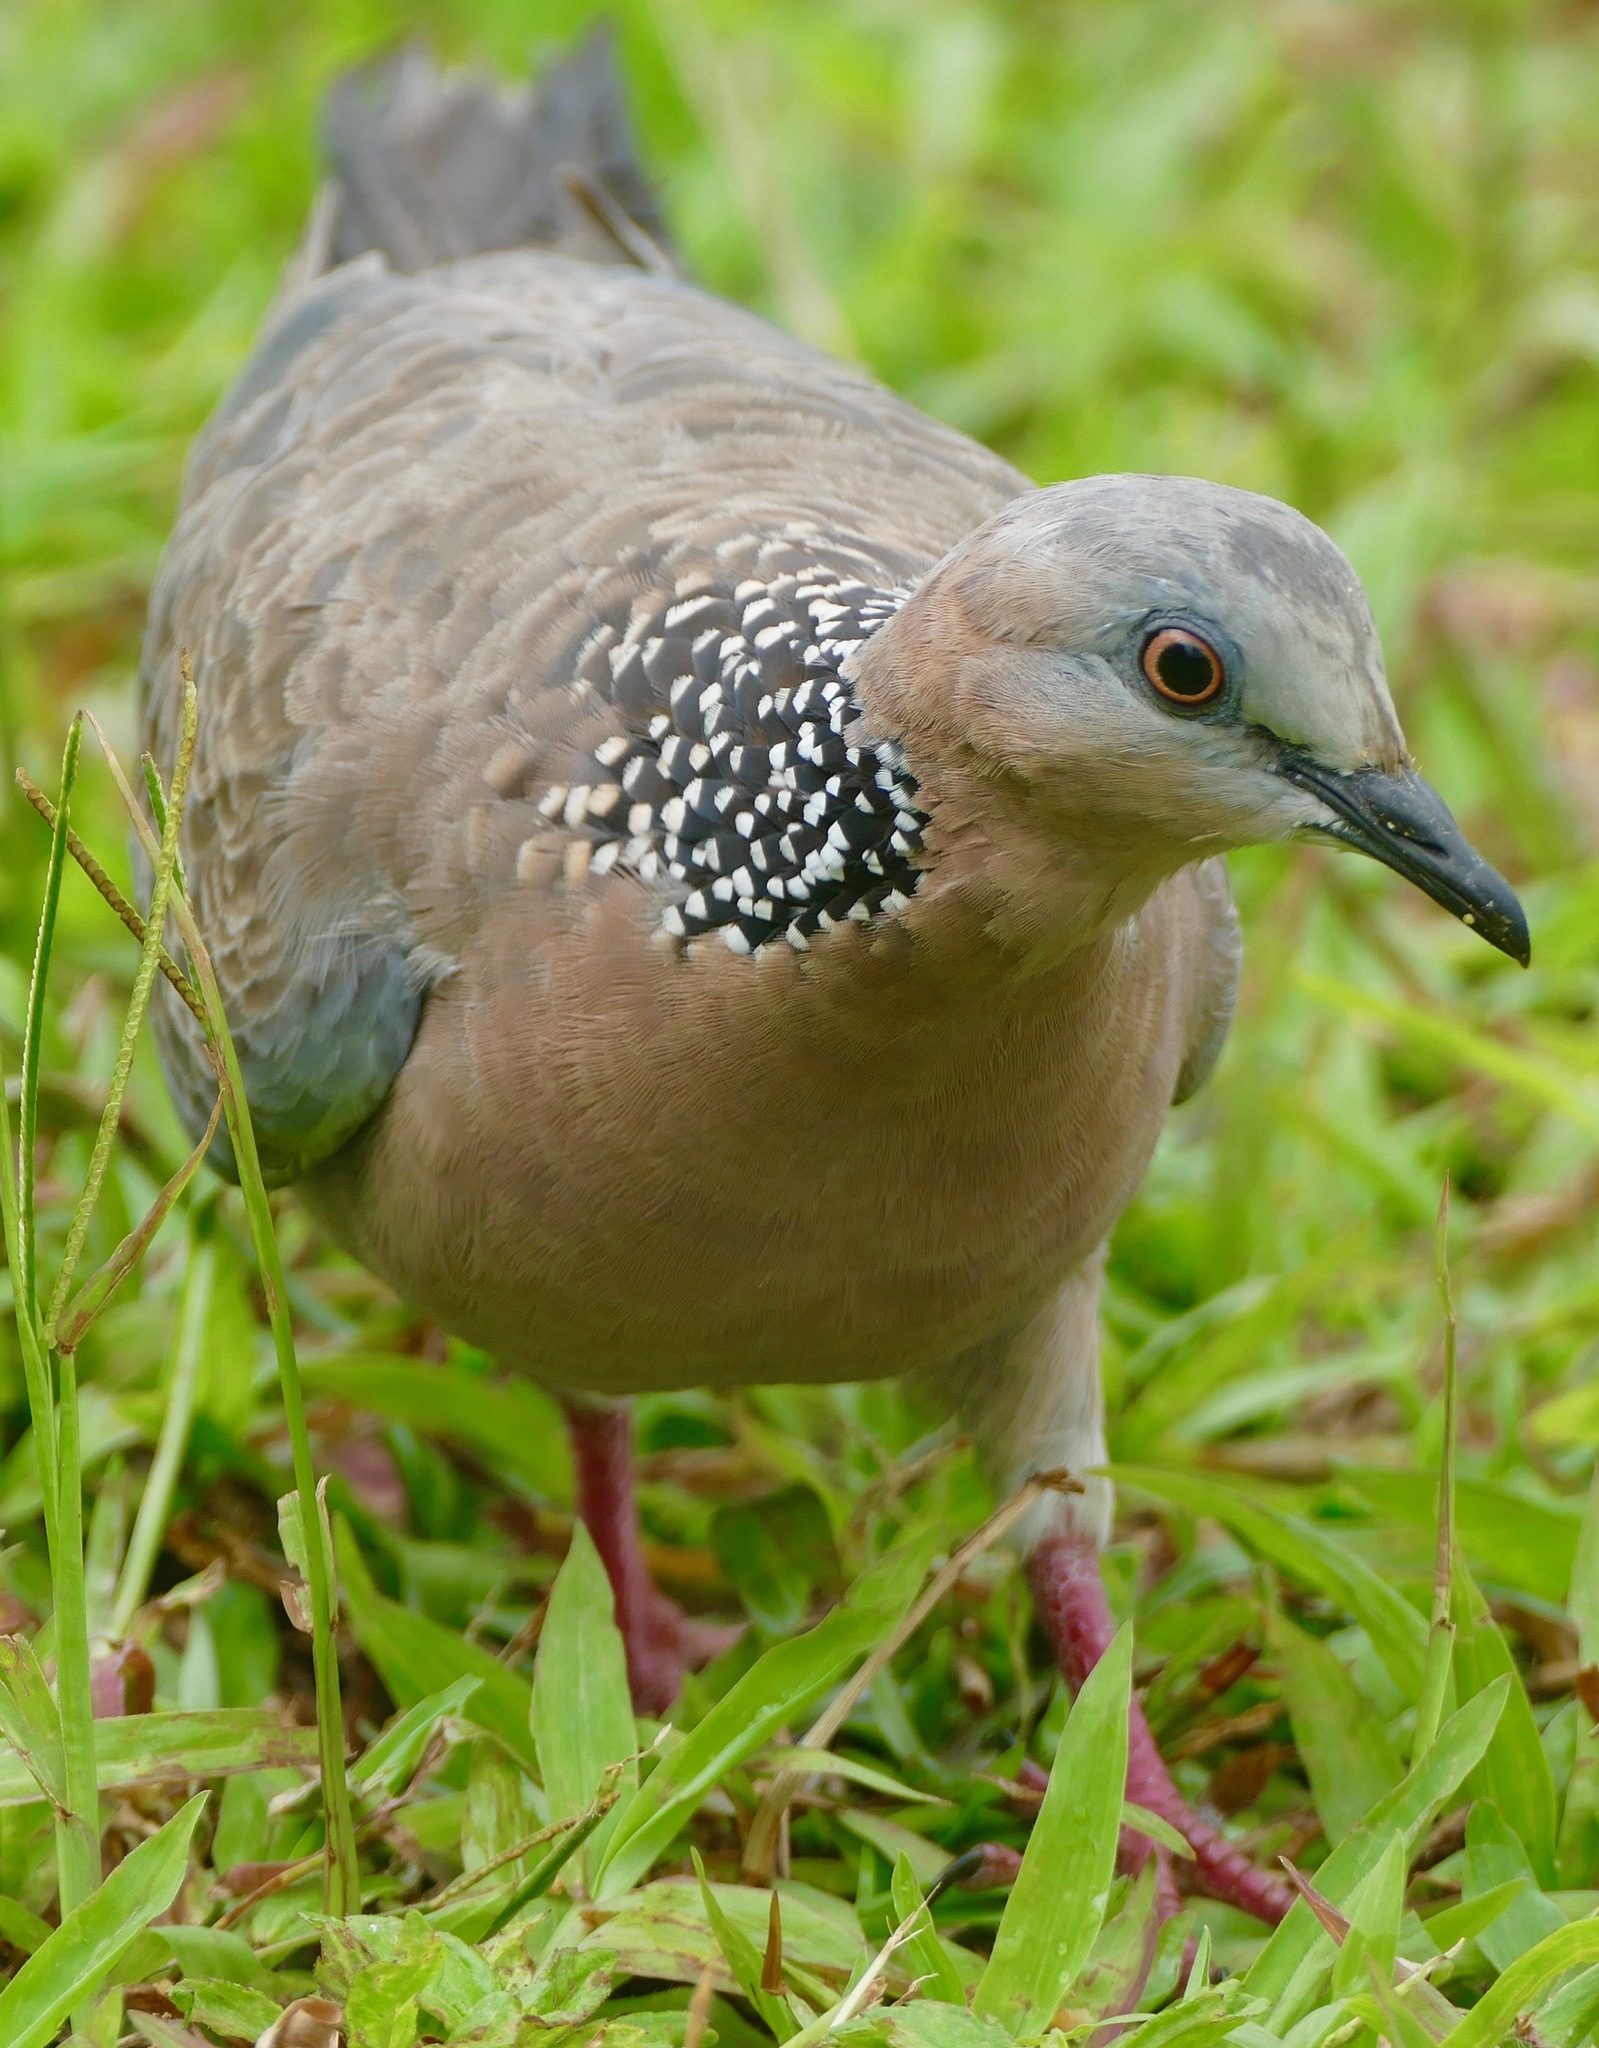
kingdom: Animalia
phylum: Chordata
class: Aves
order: Columbiformes
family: Columbidae
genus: Spilopelia
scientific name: Spilopelia chinensis
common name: Spotted dove
